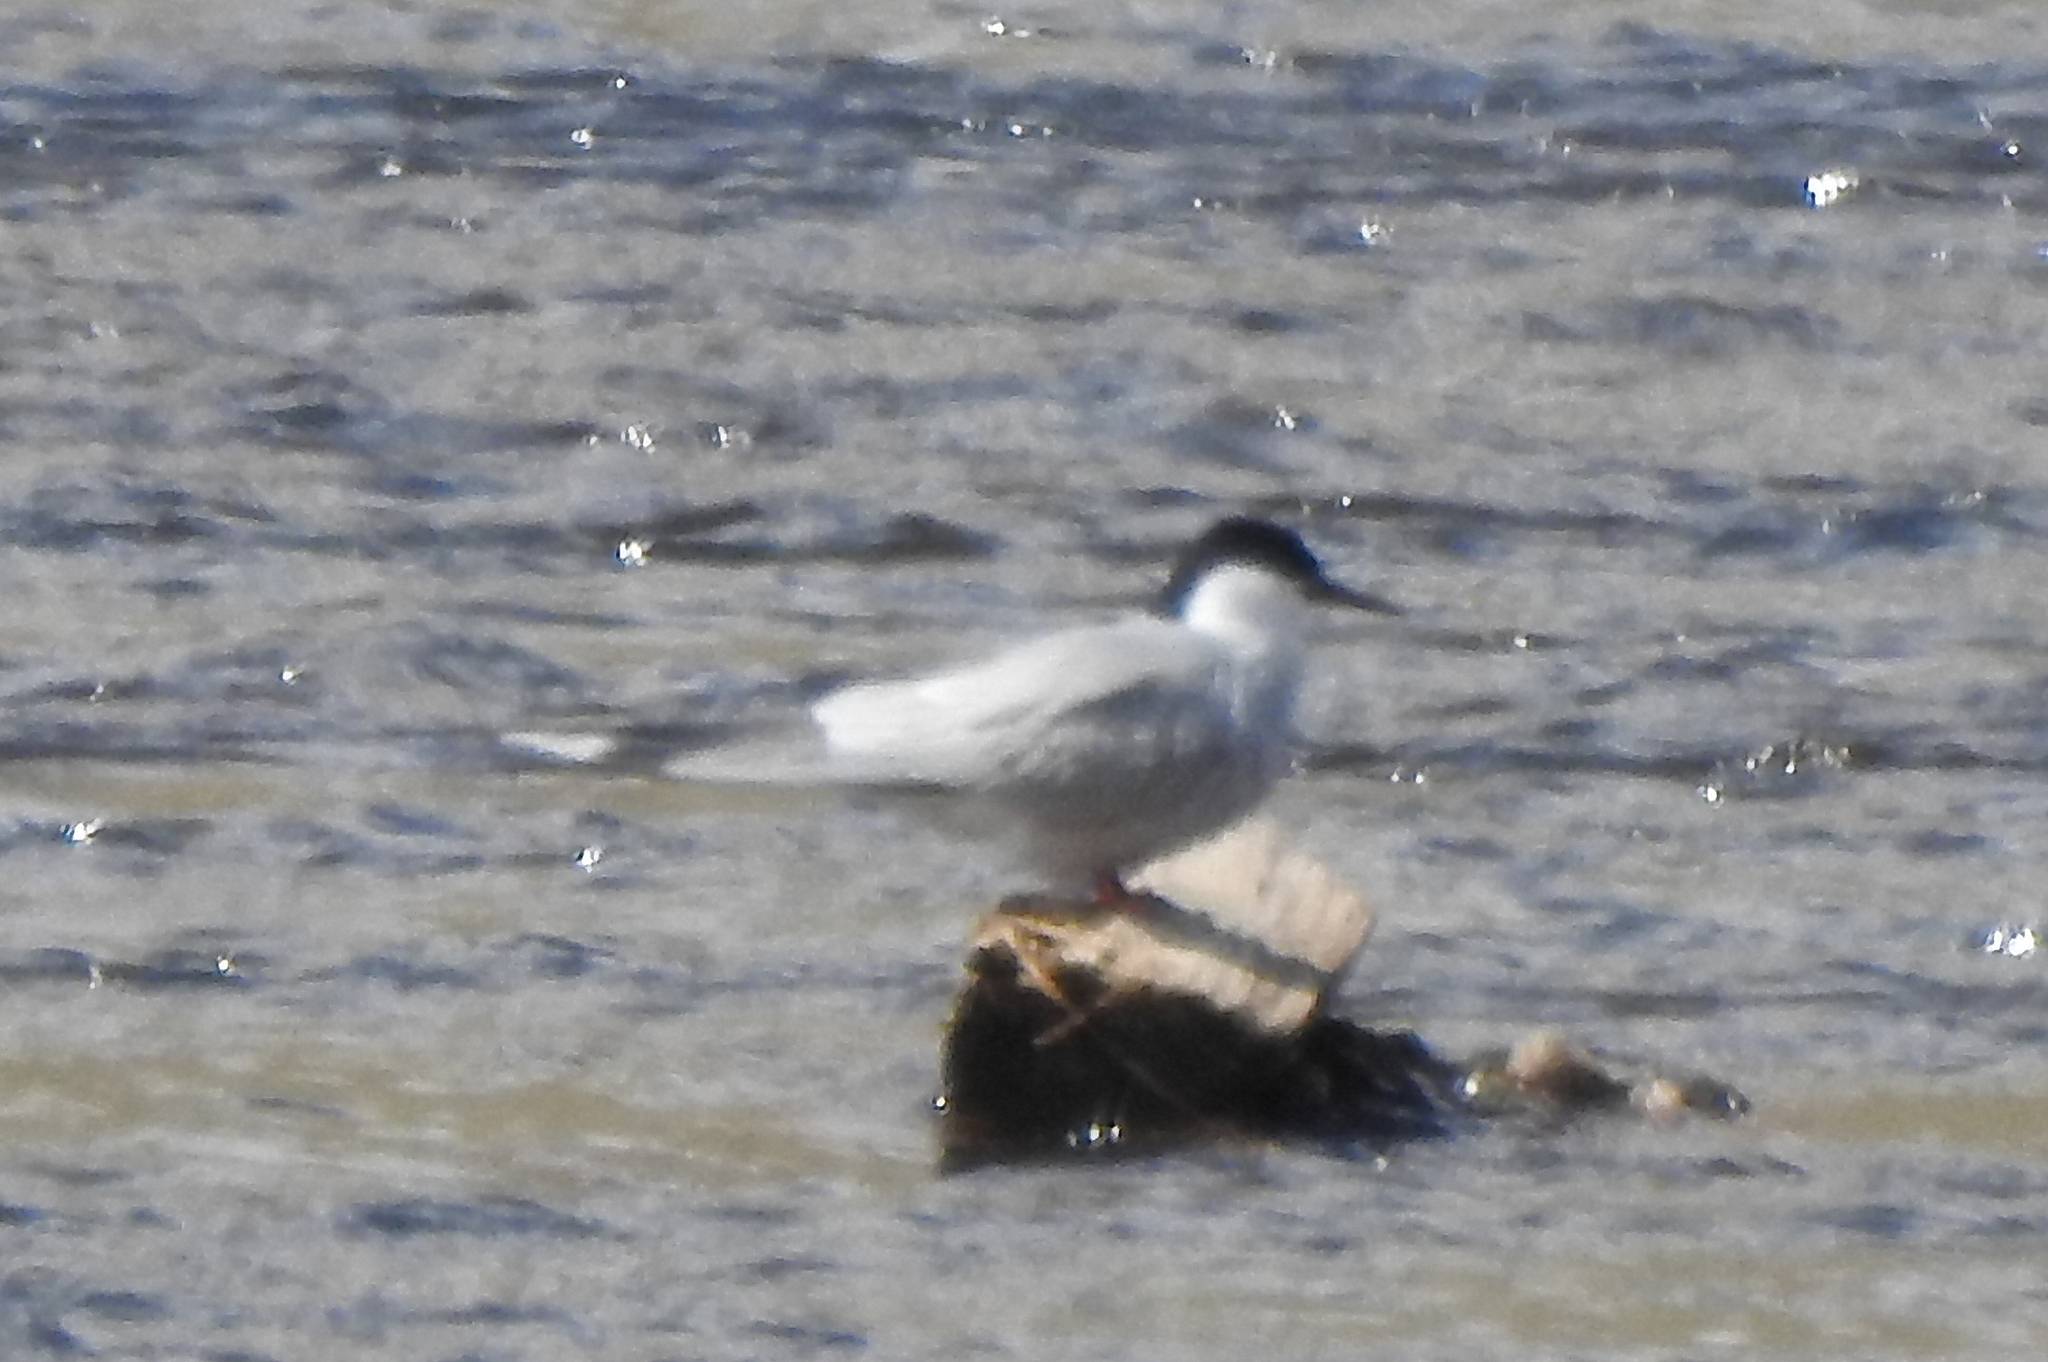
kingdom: Animalia
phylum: Chordata
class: Aves
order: Charadriiformes
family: Laridae
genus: Sterna
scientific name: Sterna hirundo
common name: Common tern
